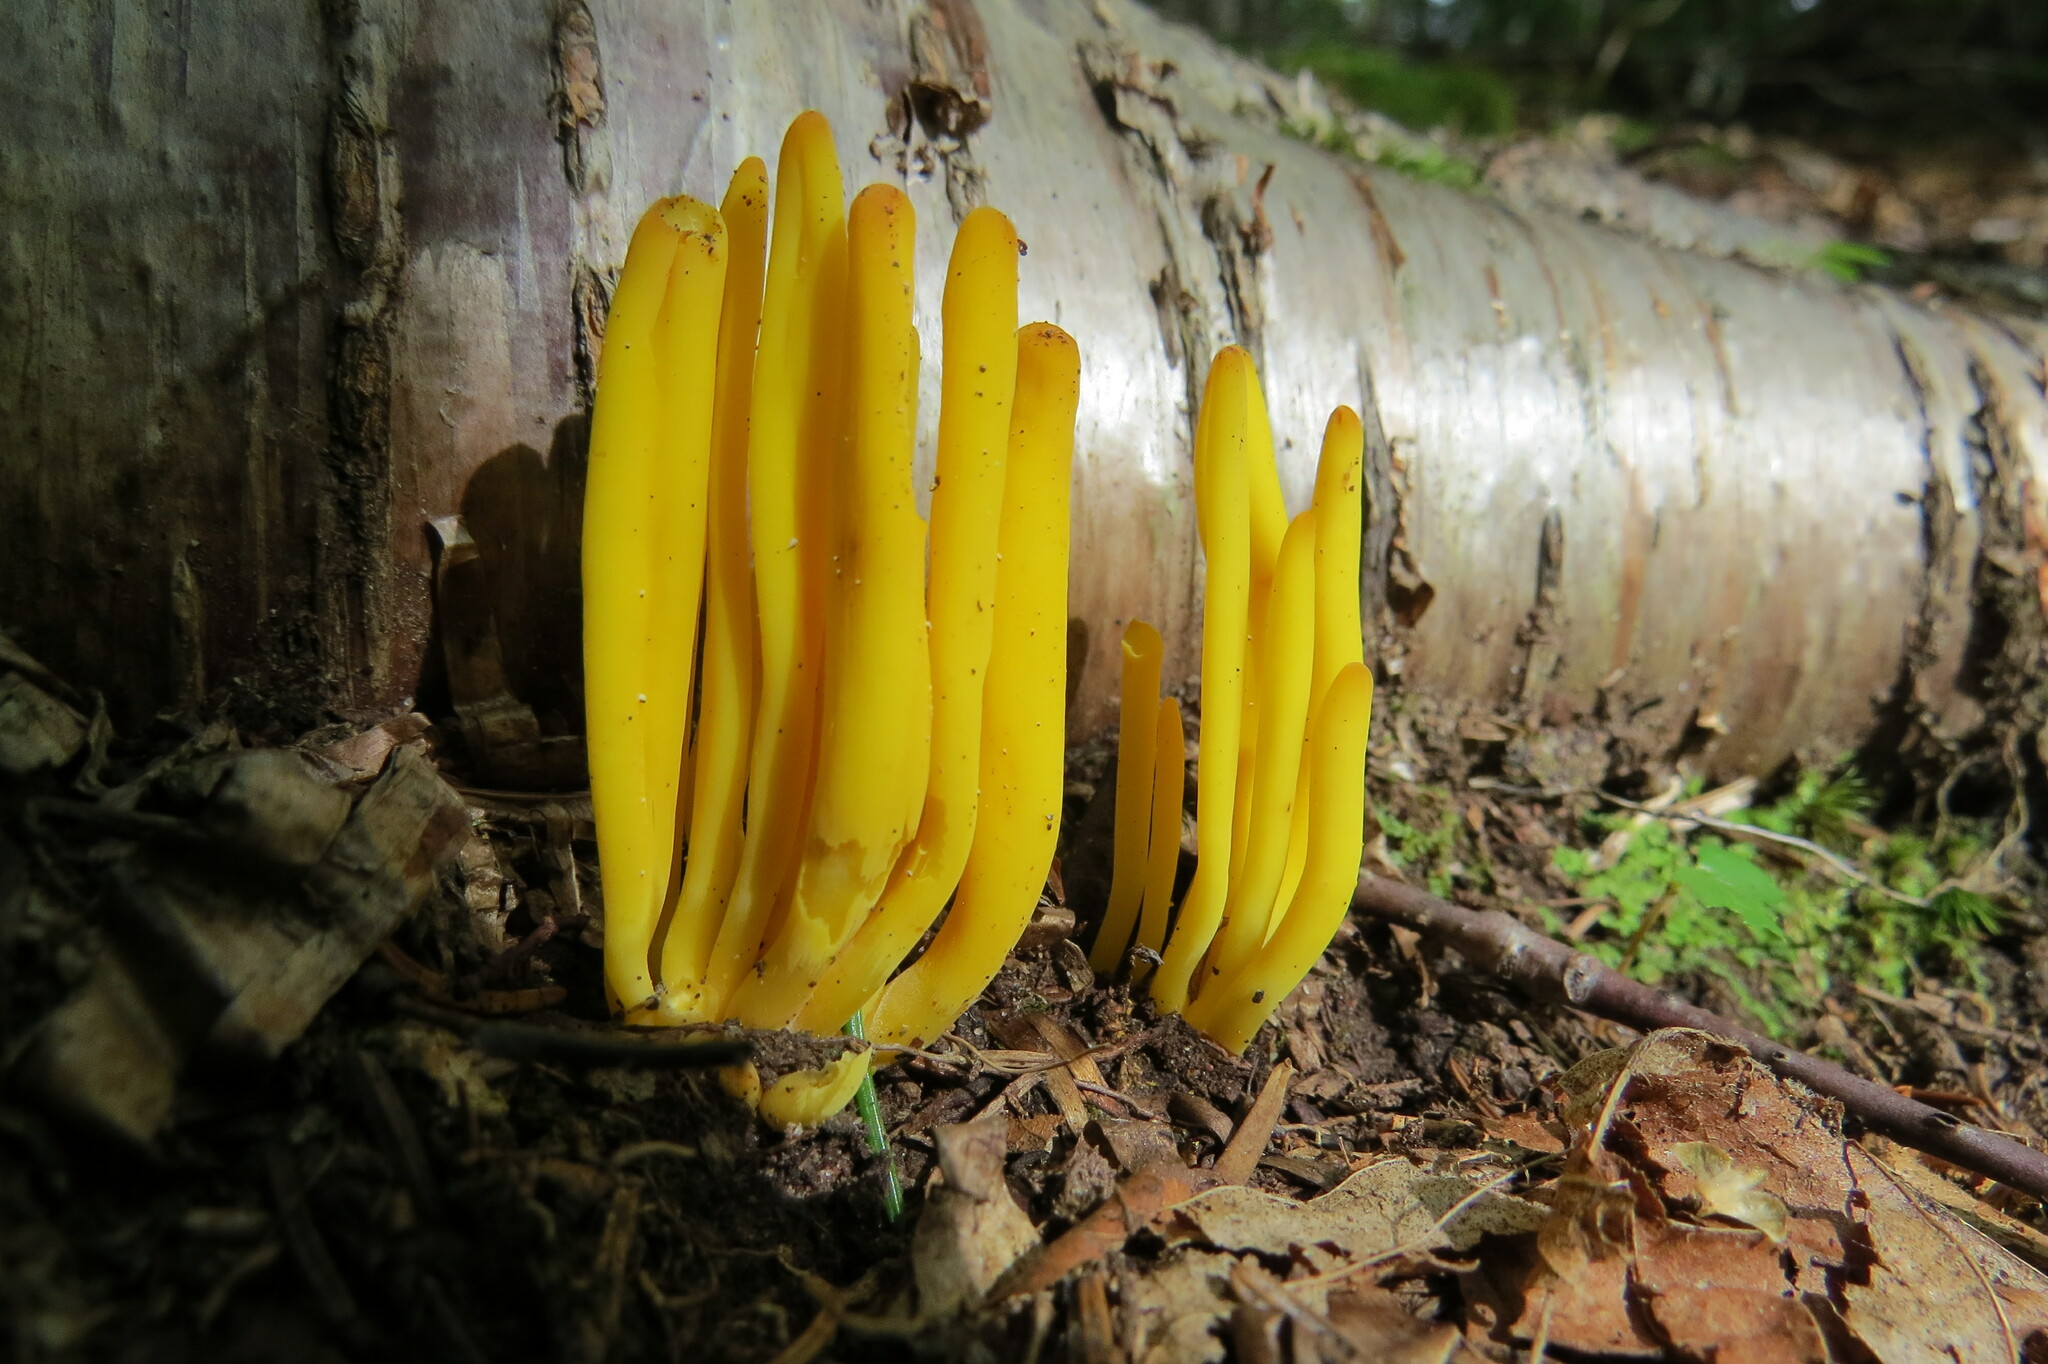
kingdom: Fungi
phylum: Basidiomycota
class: Agaricomycetes
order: Agaricales
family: Clavariaceae
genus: Clavulinopsis
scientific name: Clavulinopsis fusiformis
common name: Golden spindles
